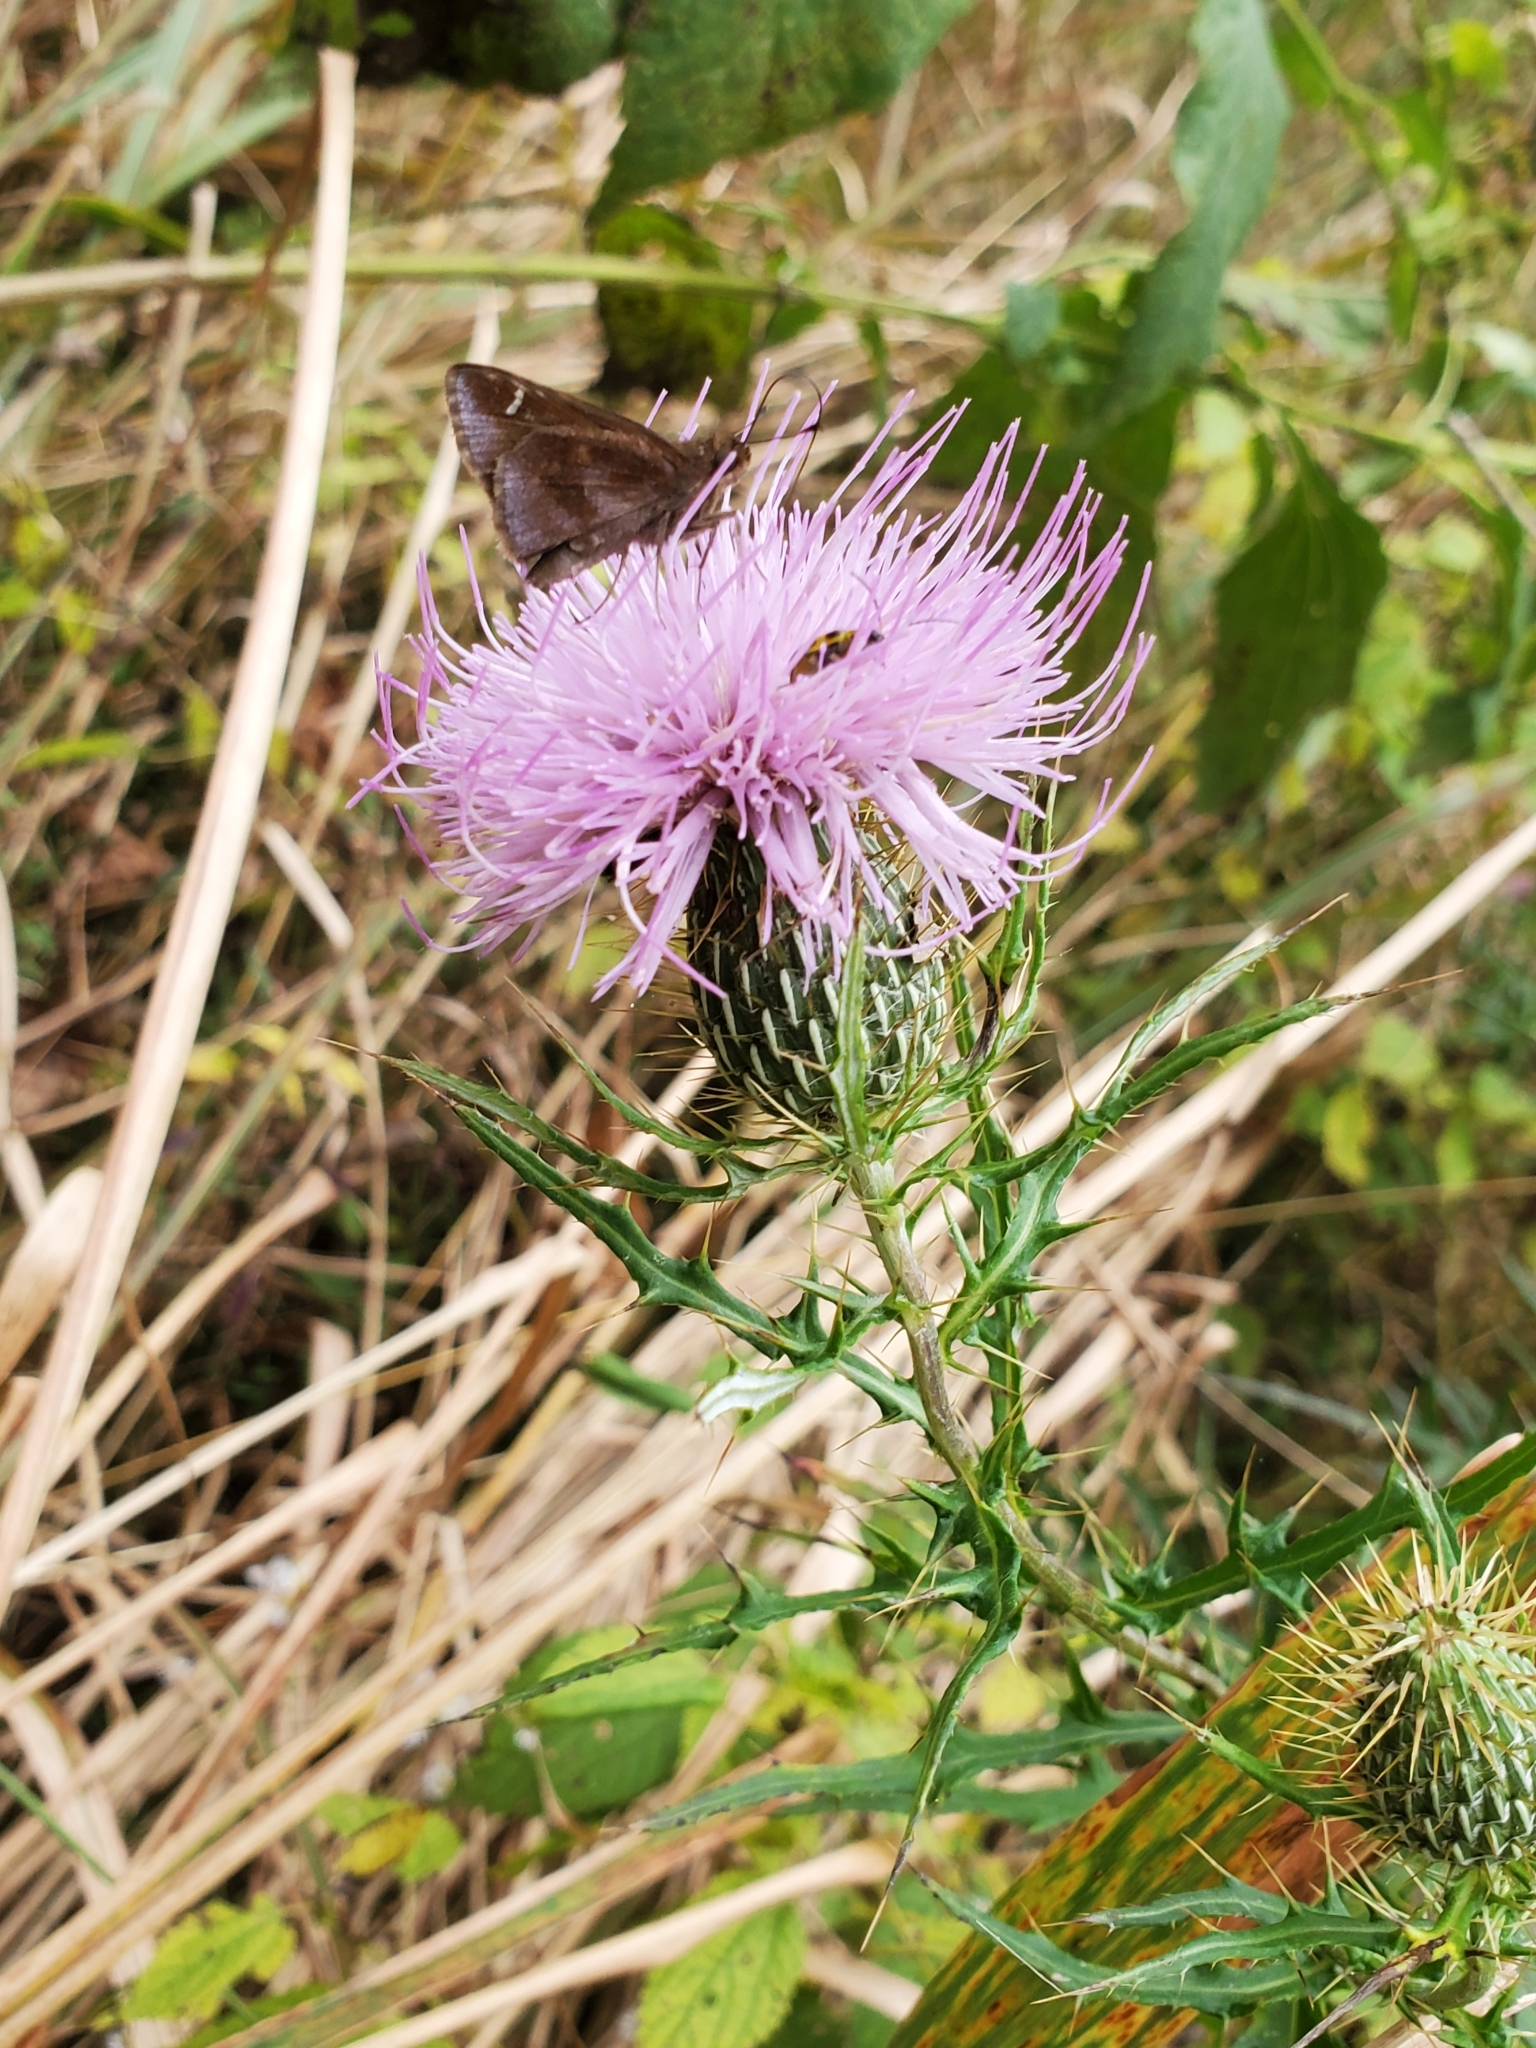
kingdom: Plantae
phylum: Tracheophyta
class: Magnoliopsida
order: Asterales
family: Asteraceae
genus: Cirsium
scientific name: Cirsium discolor
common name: Field thistle
